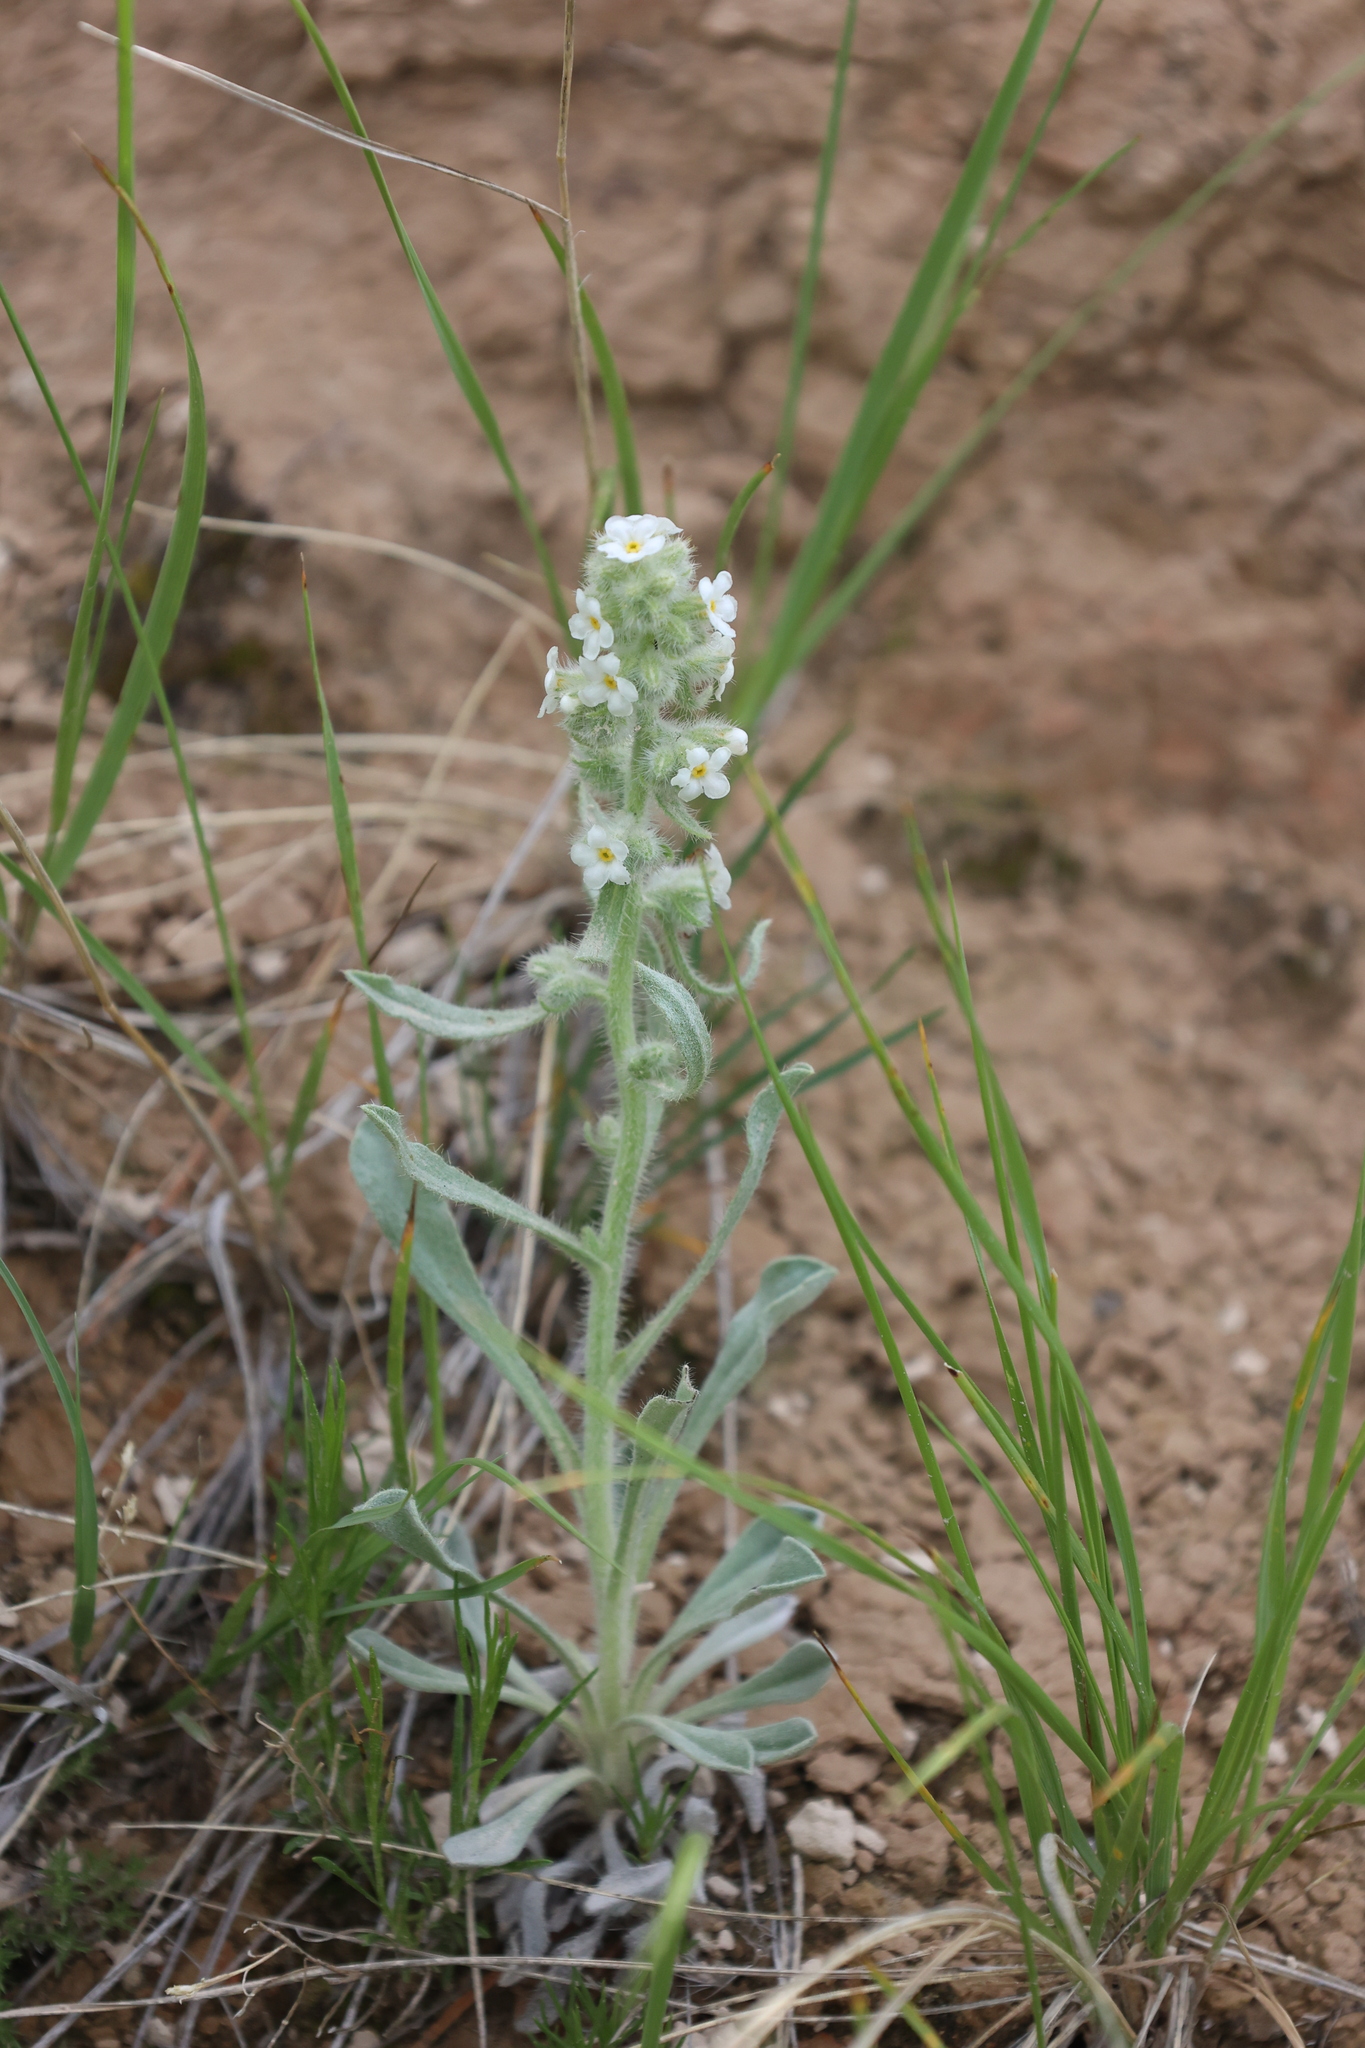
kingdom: Plantae
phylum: Tracheophyta
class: Magnoliopsida
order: Boraginales
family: Boraginaceae
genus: Oreocarya
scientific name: Oreocarya glomerata
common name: Macoun's cryptantha
